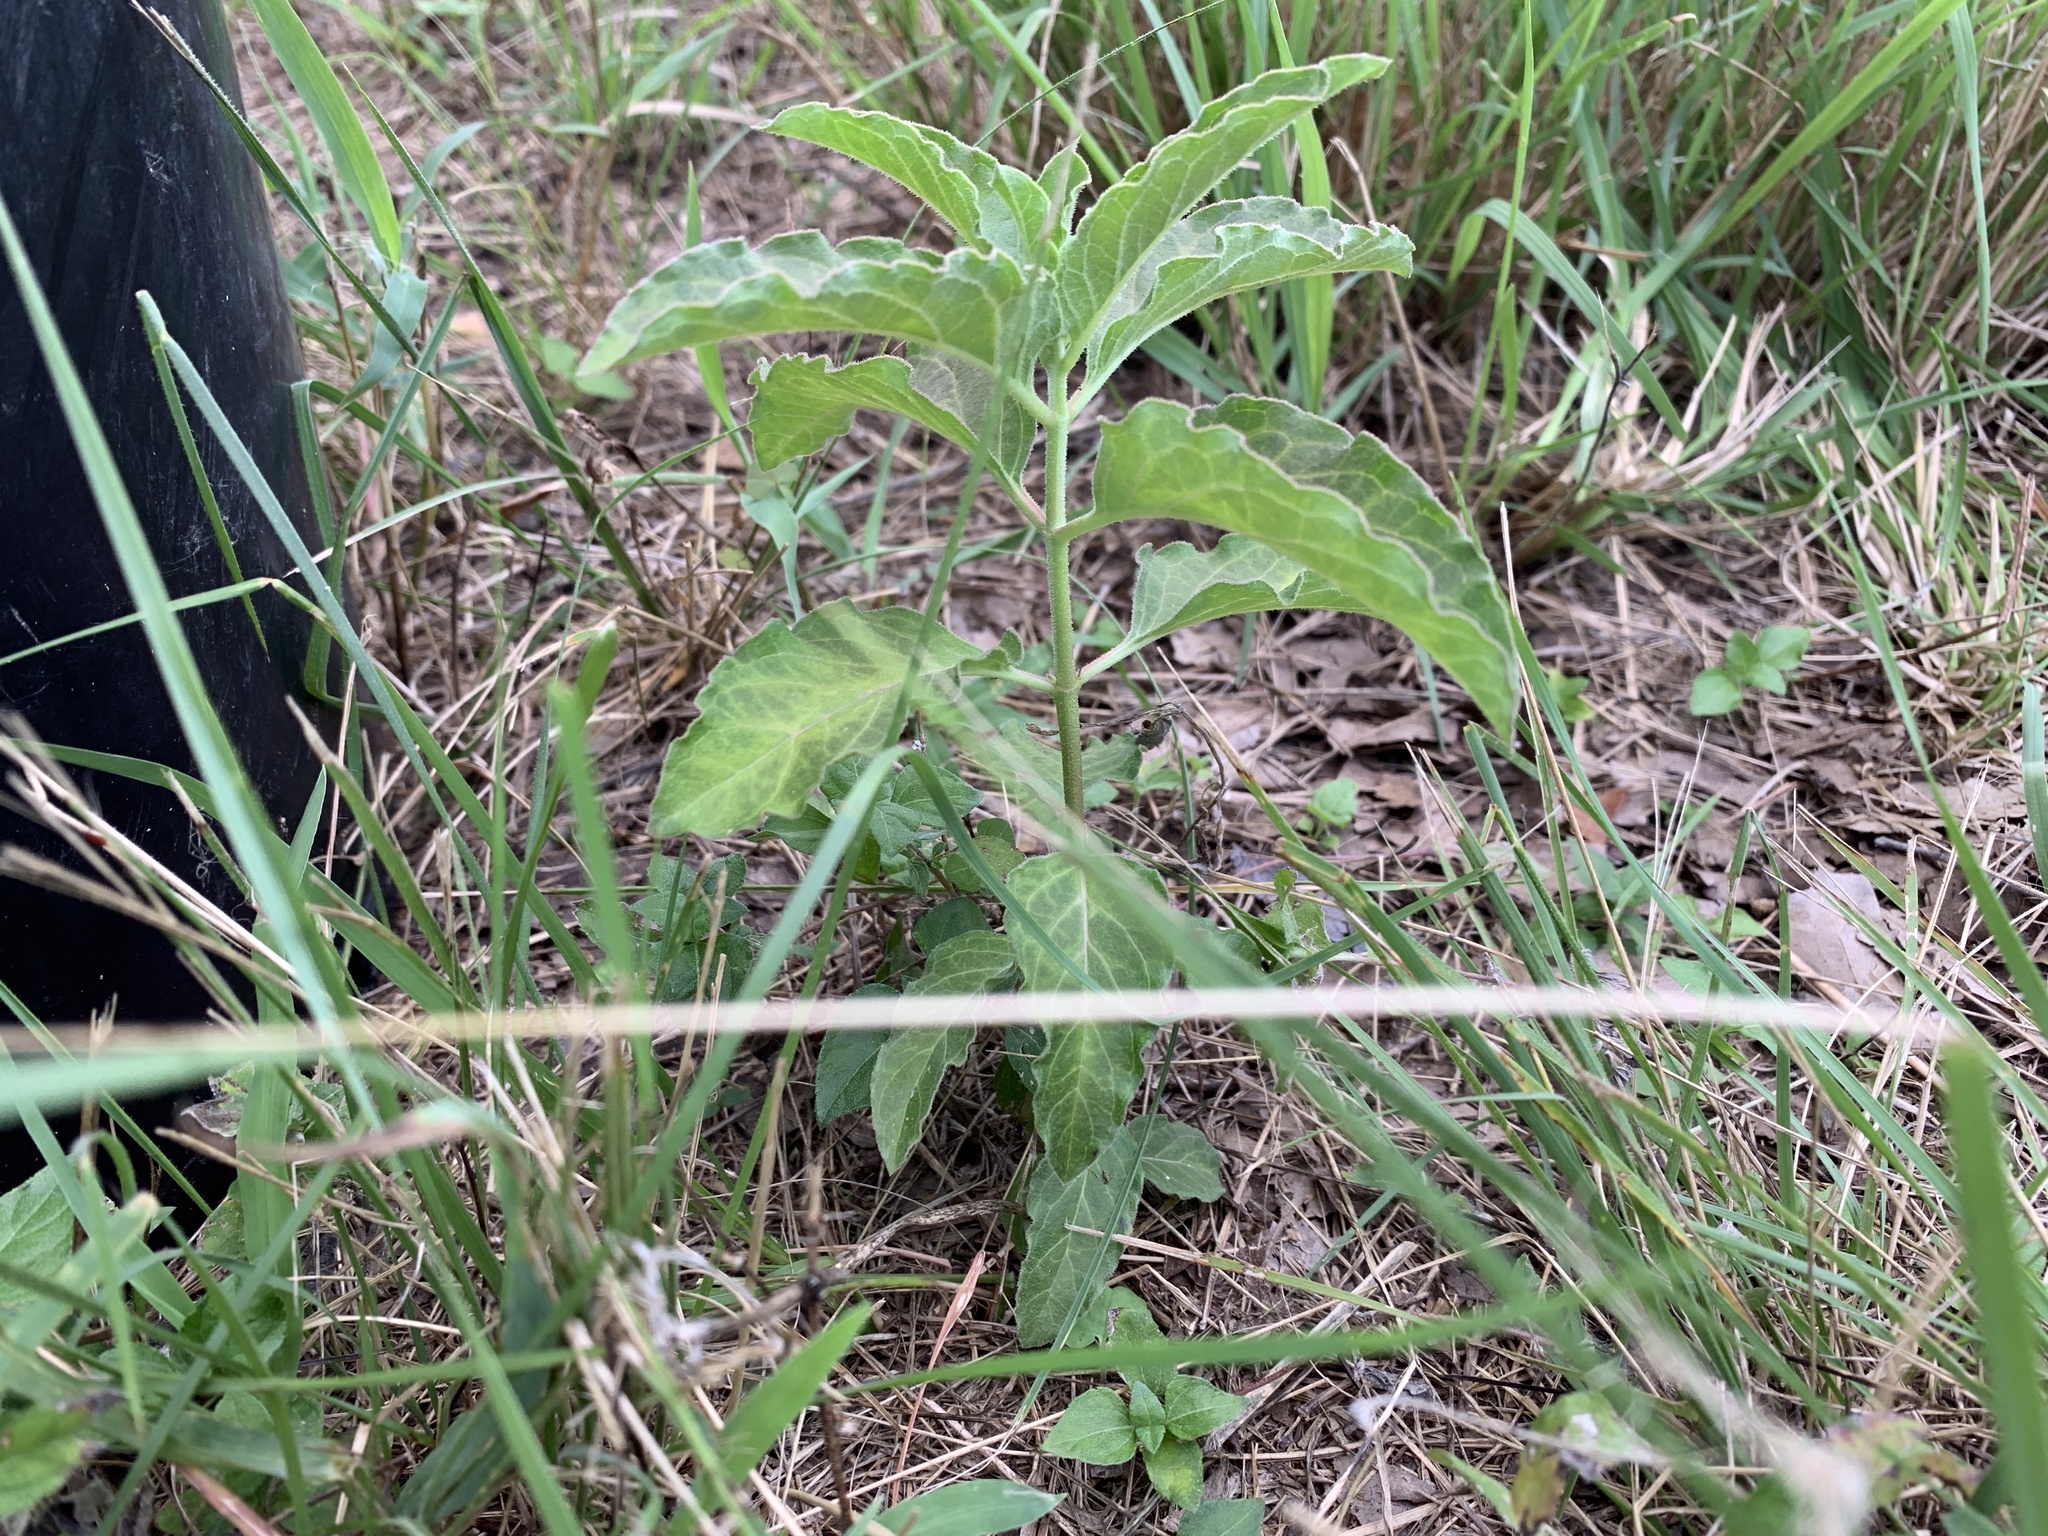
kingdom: Plantae
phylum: Tracheophyta
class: Magnoliopsida
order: Gentianales
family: Apocynaceae
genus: Asclepias
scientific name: Asclepias oenotheroides
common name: Zizotes milkweed
